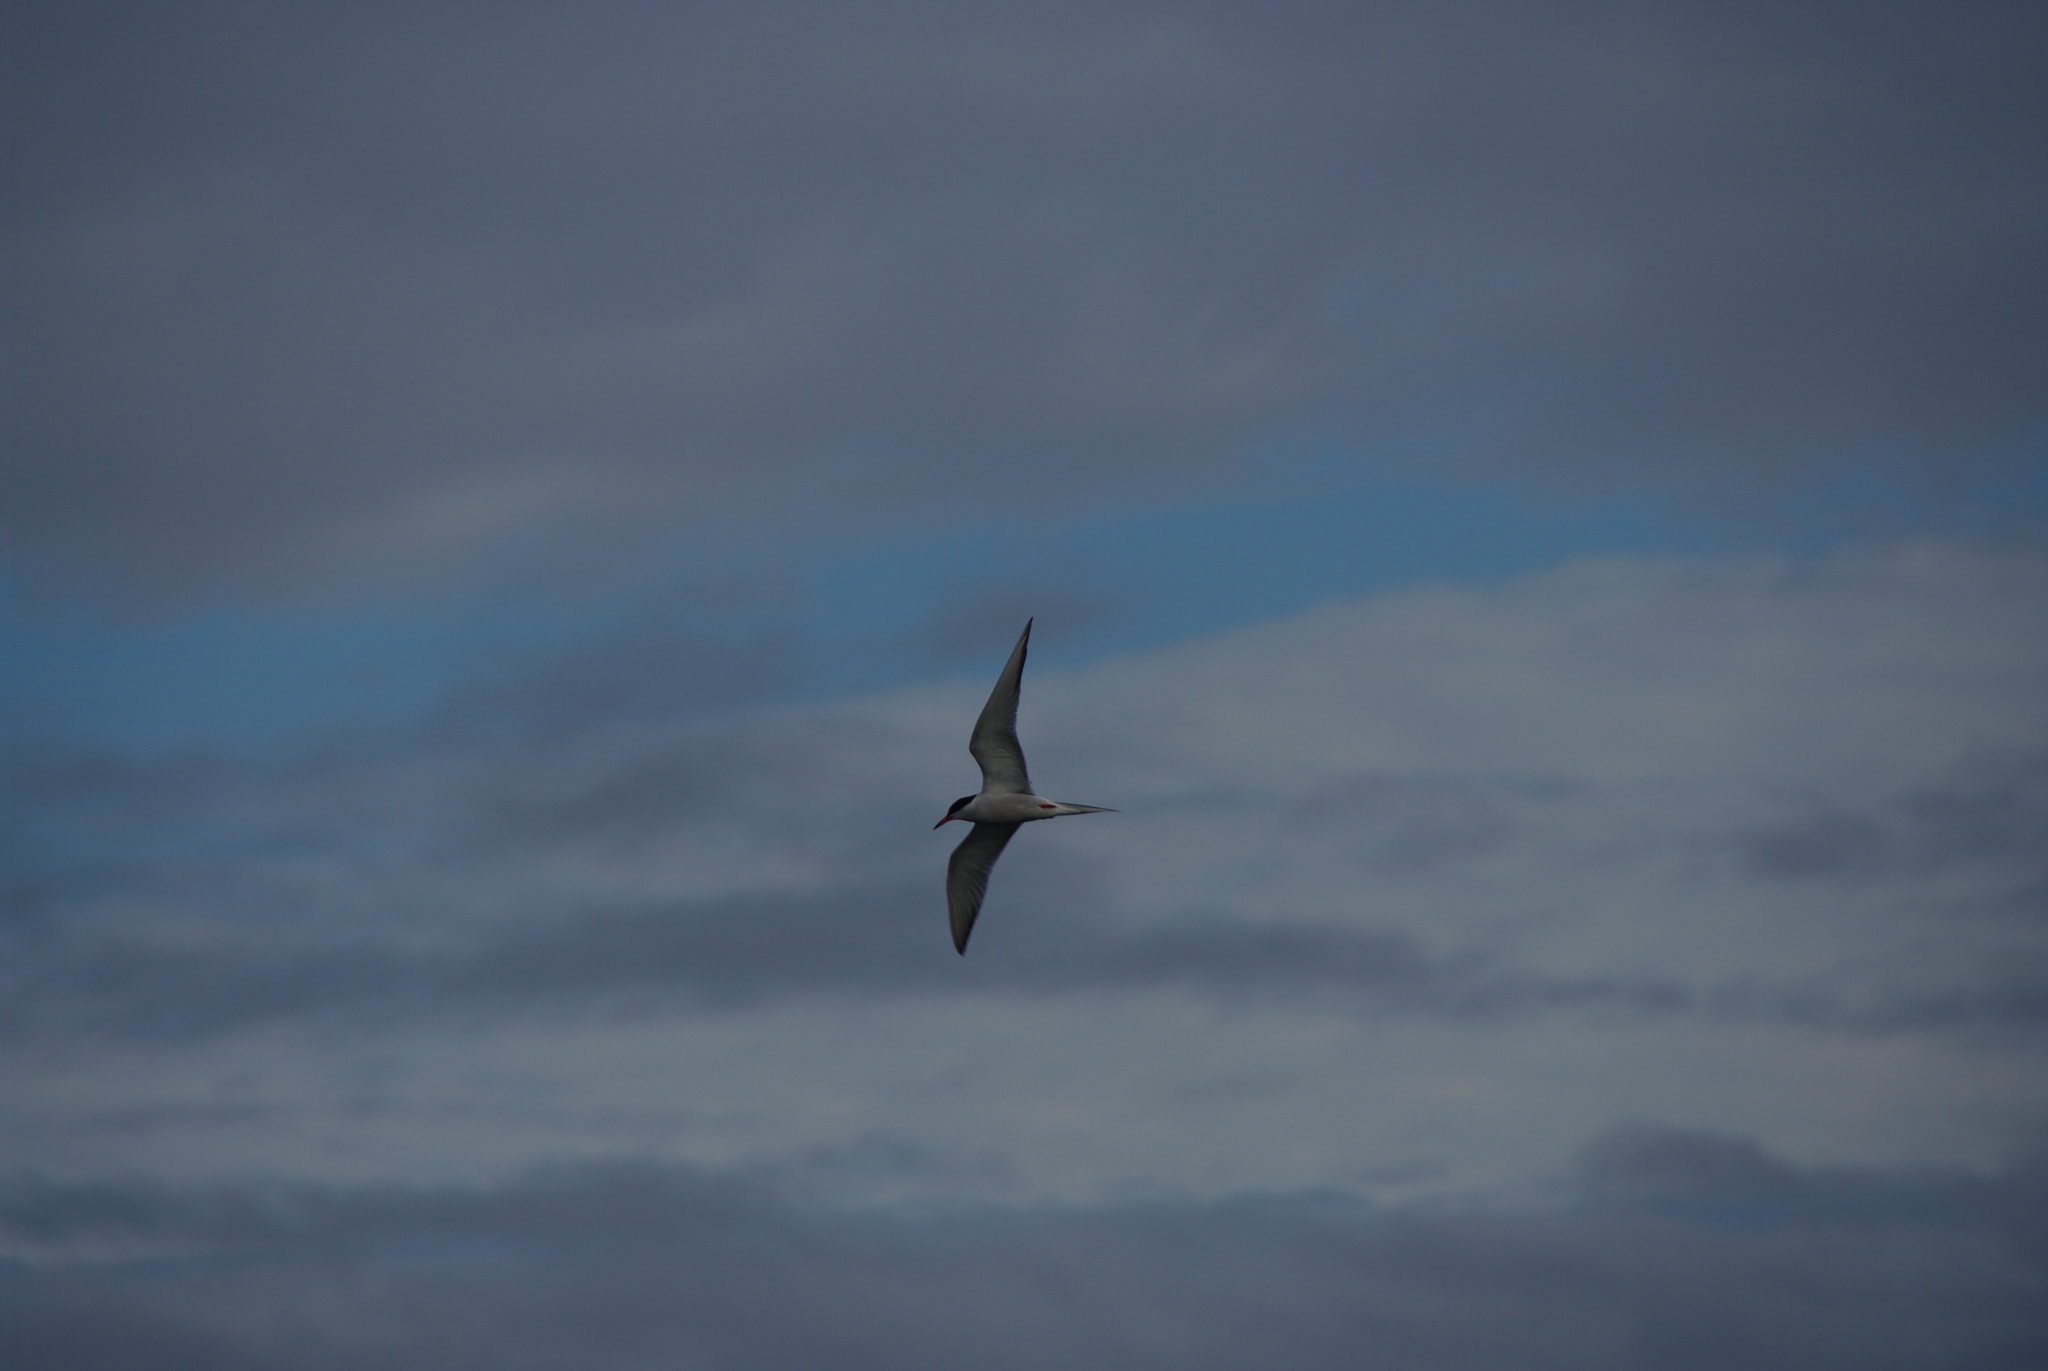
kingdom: Animalia
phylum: Chordata
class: Aves
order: Charadriiformes
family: Laridae
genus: Sterna
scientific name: Sterna hirundo
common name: Common tern
